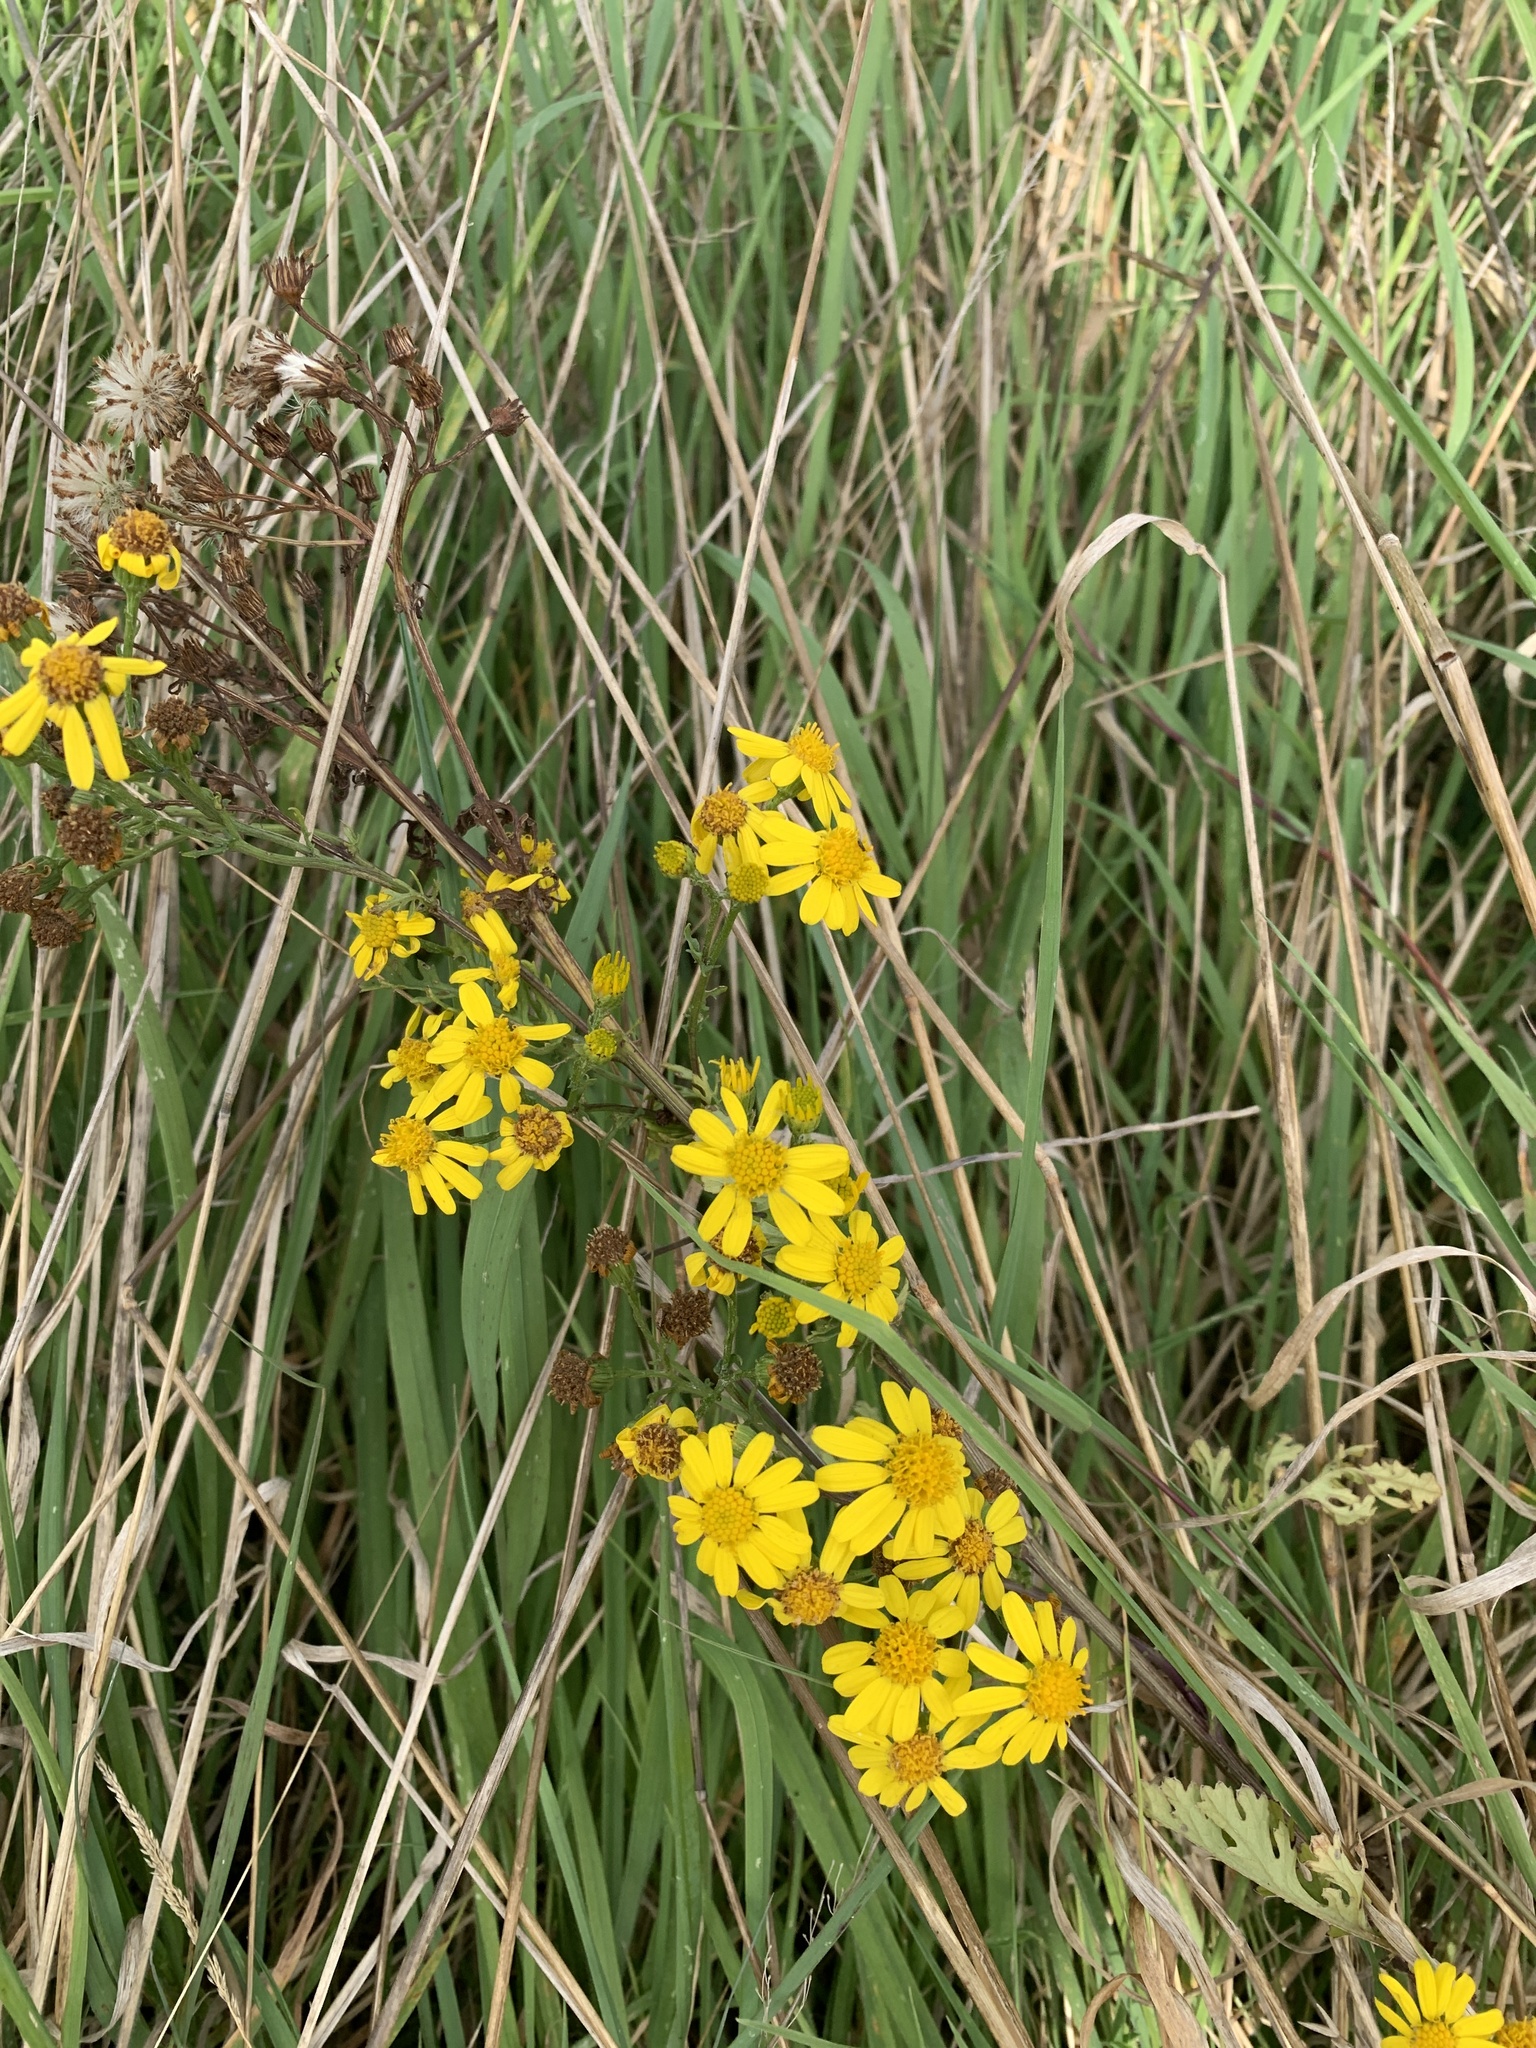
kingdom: Plantae
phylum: Tracheophyta
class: Magnoliopsida
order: Asterales
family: Asteraceae
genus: Jacobaea
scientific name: Jacobaea vulgaris
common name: Stinking willie
